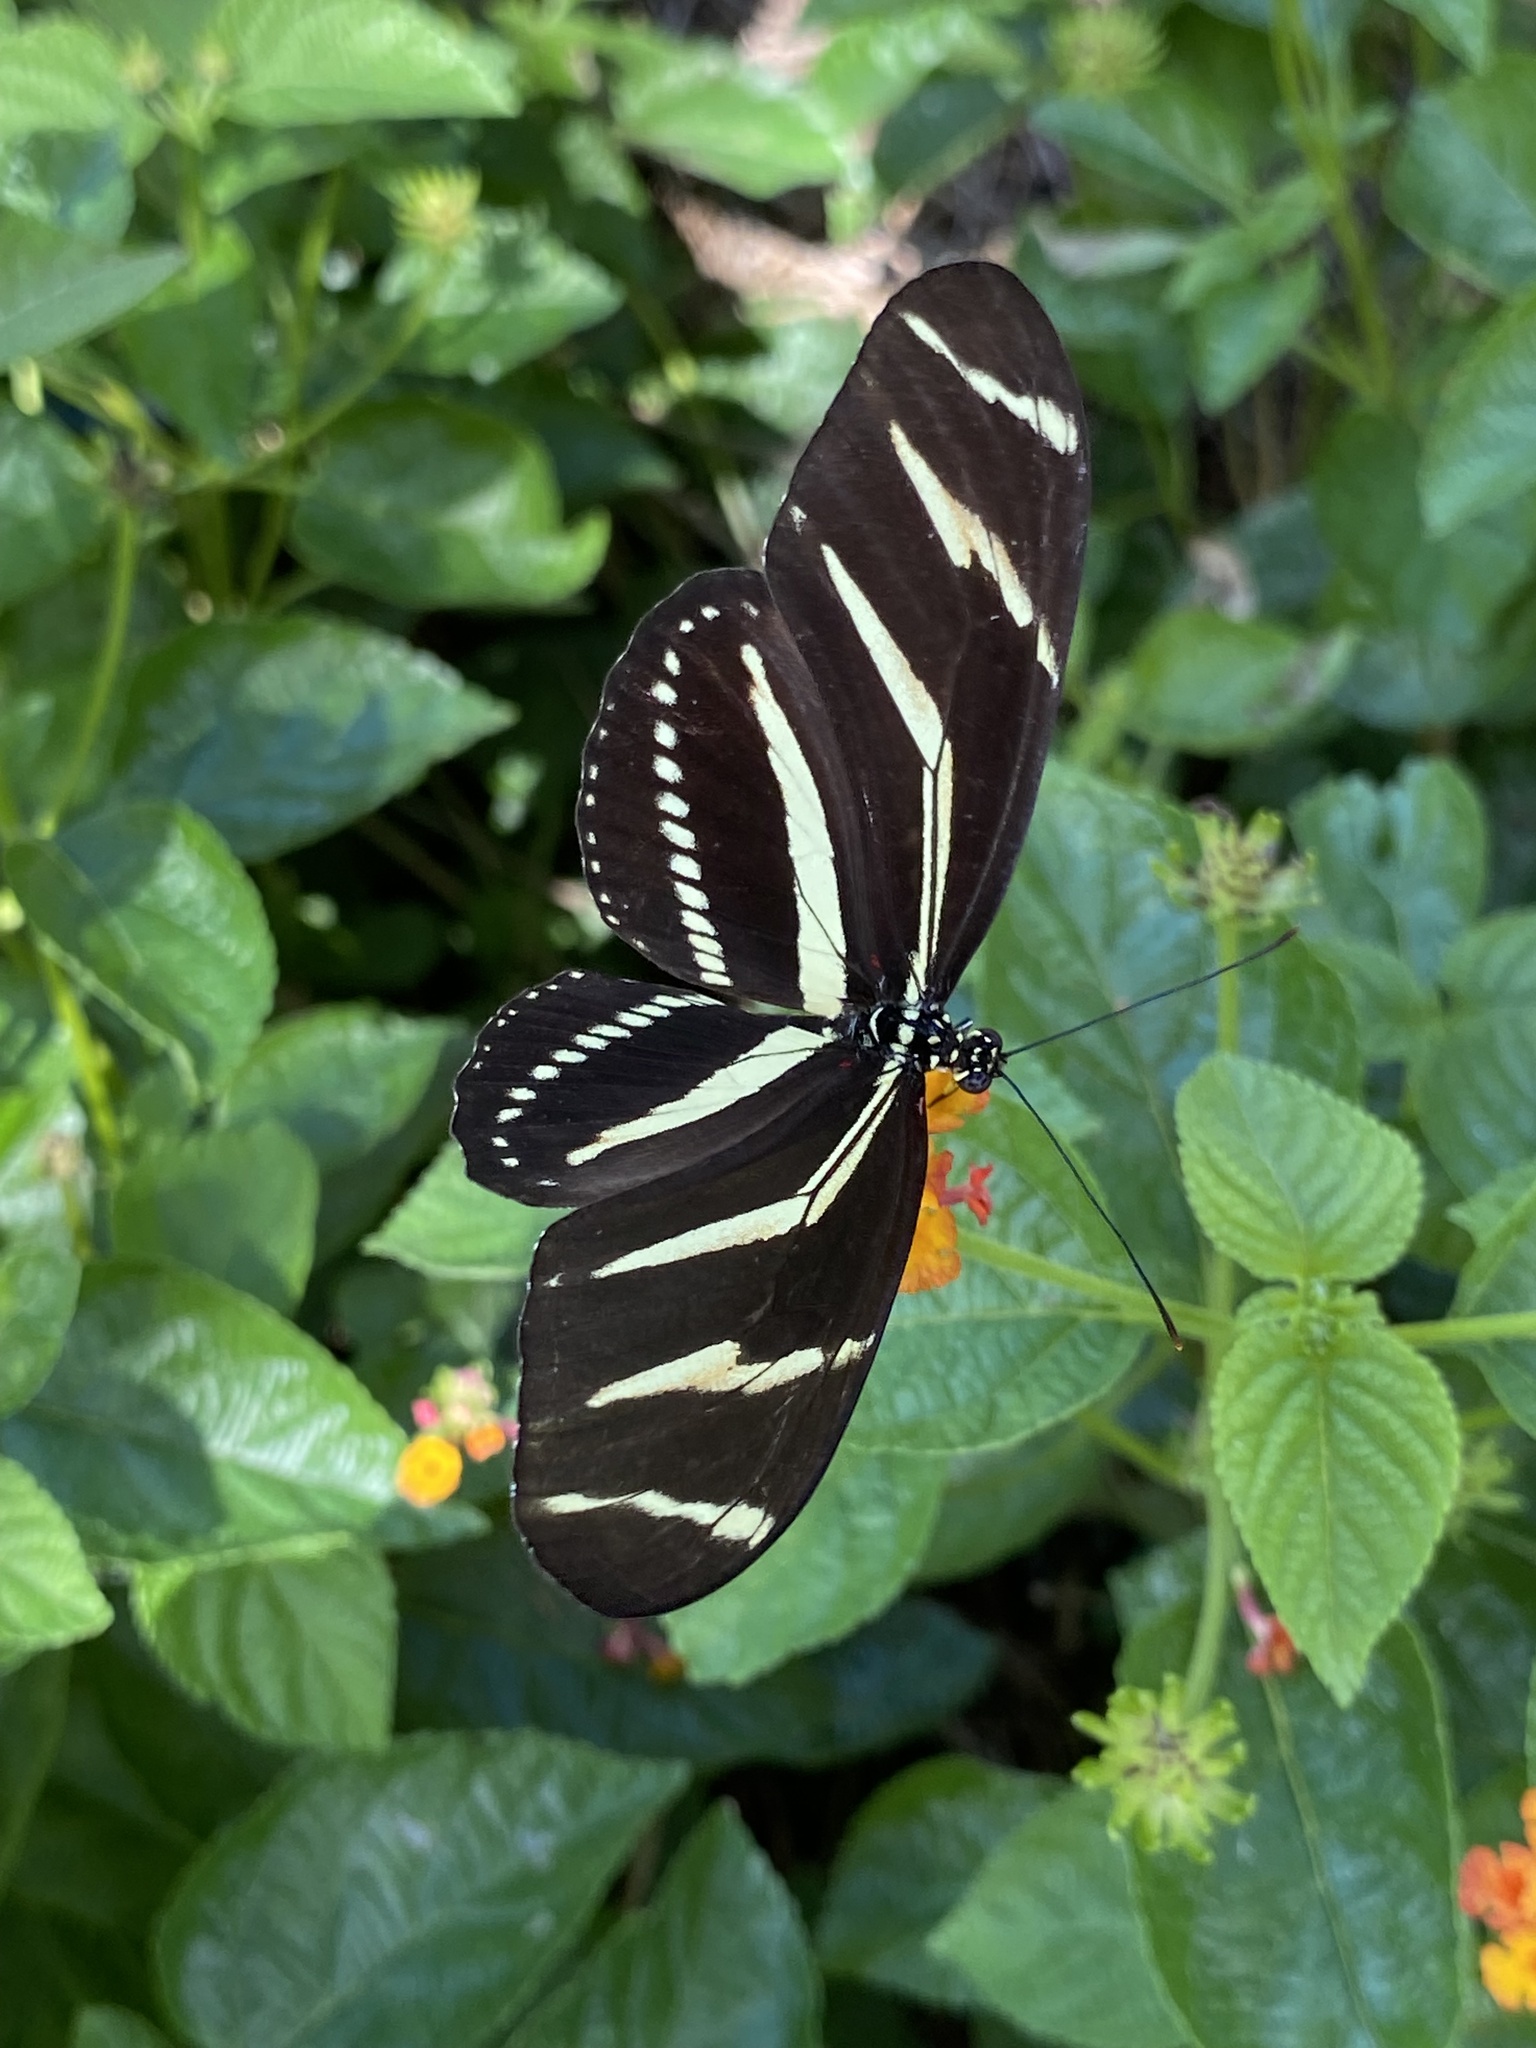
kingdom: Animalia
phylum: Arthropoda
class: Insecta
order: Lepidoptera
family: Nymphalidae
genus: Heliconius
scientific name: Heliconius charithonia
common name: Zebra long wing
